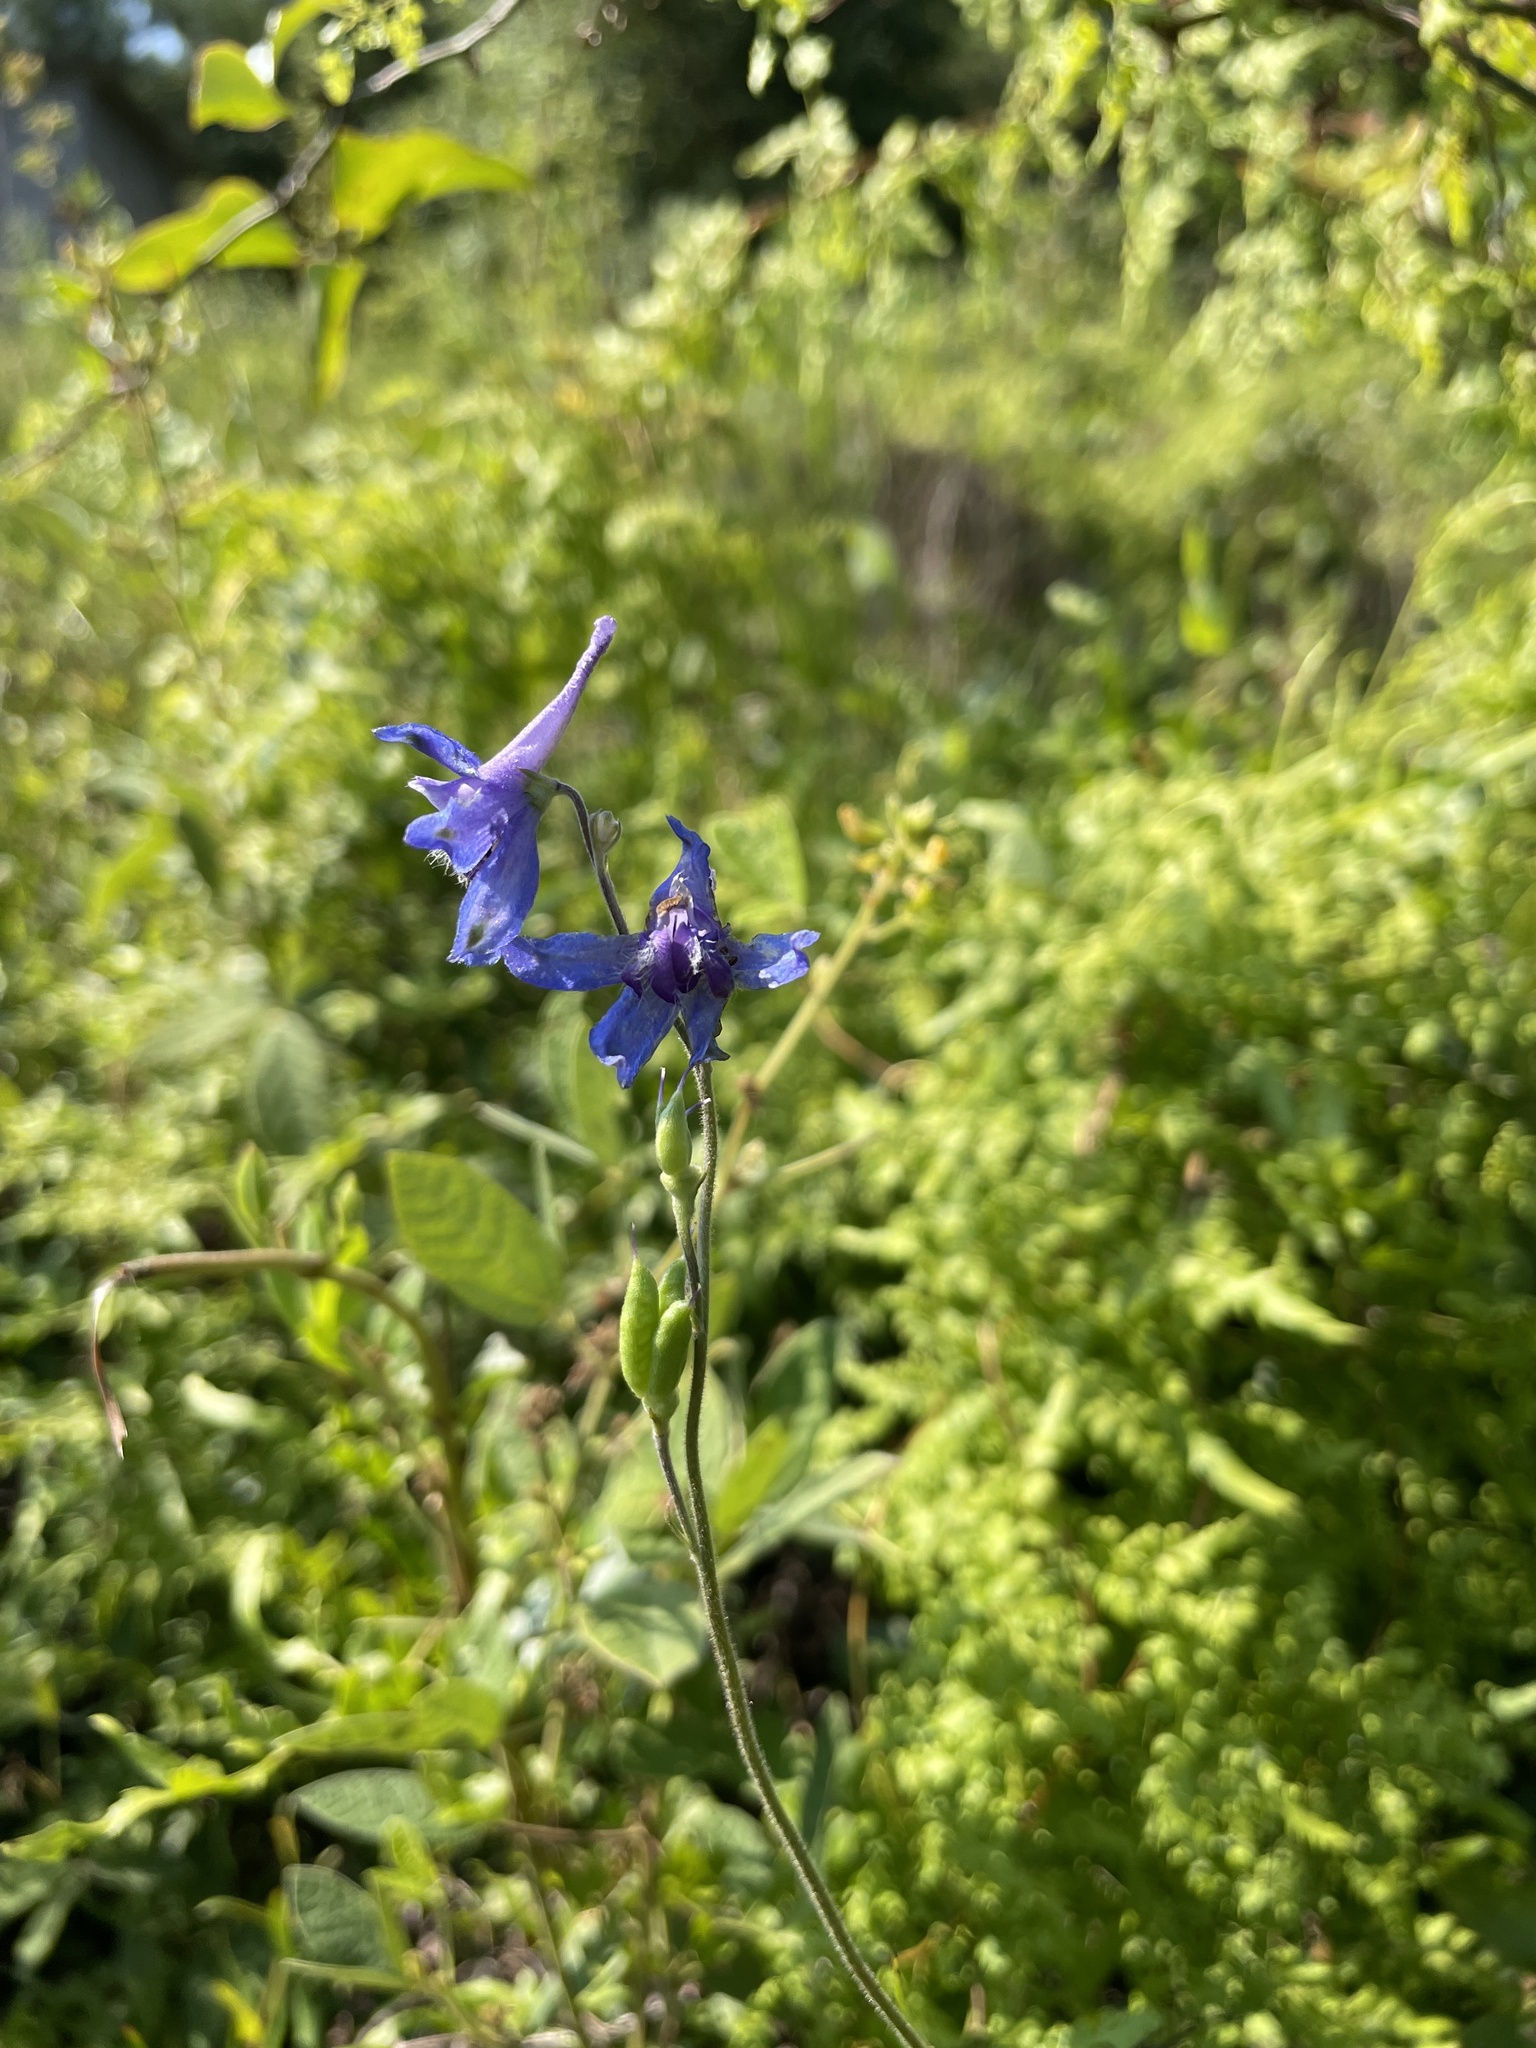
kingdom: Plantae
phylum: Tracheophyta
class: Magnoliopsida
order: Ranunculales
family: Ranunculaceae
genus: Delphinium
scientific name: Delphinium carolinianum
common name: Carolina larkspur
